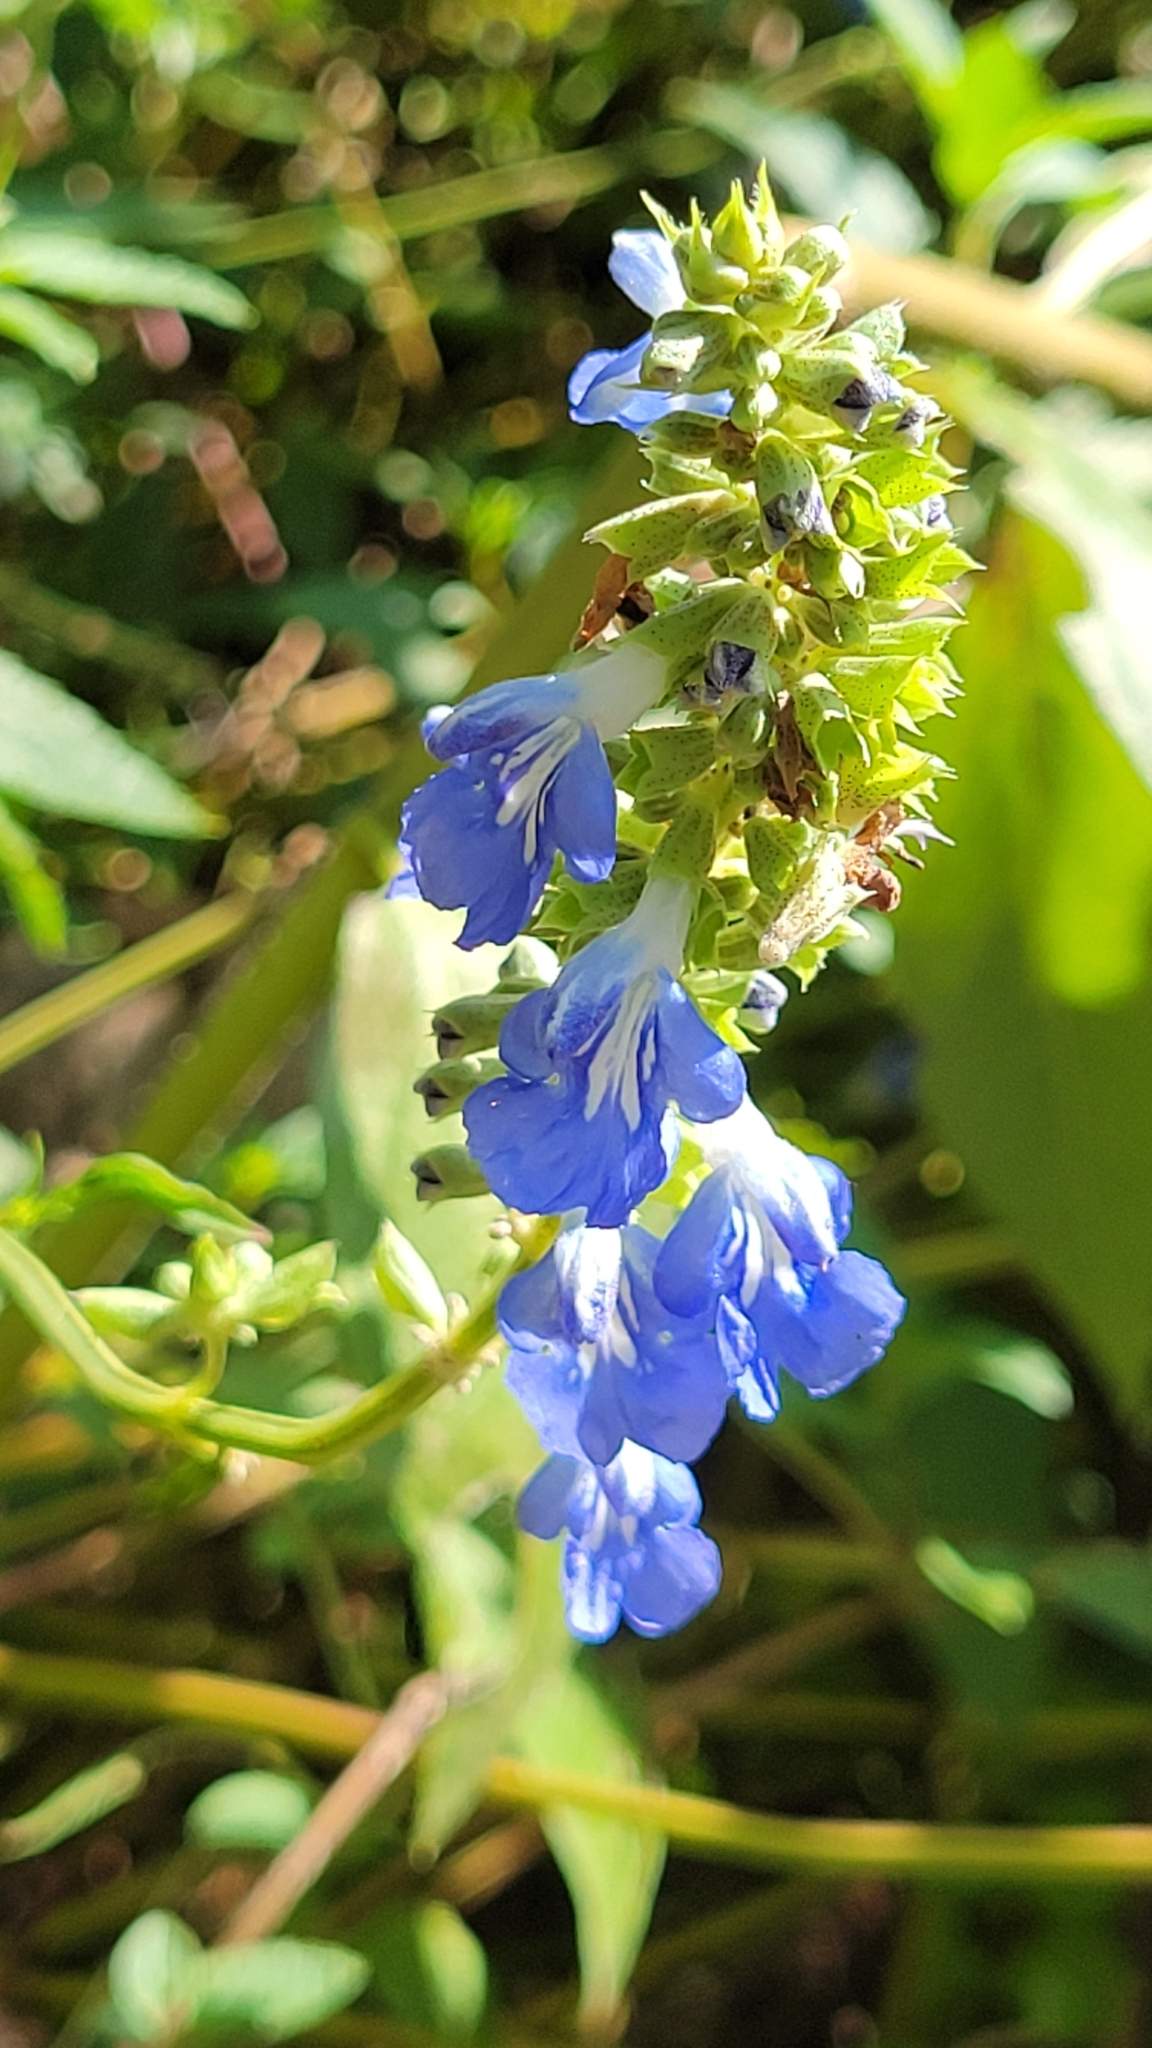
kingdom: Plantae
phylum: Tracheophyta
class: Magnoliopsida
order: Lamiales
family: Lamiaceae
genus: Salvia
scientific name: Salvia uliginosa
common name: Bog sage
